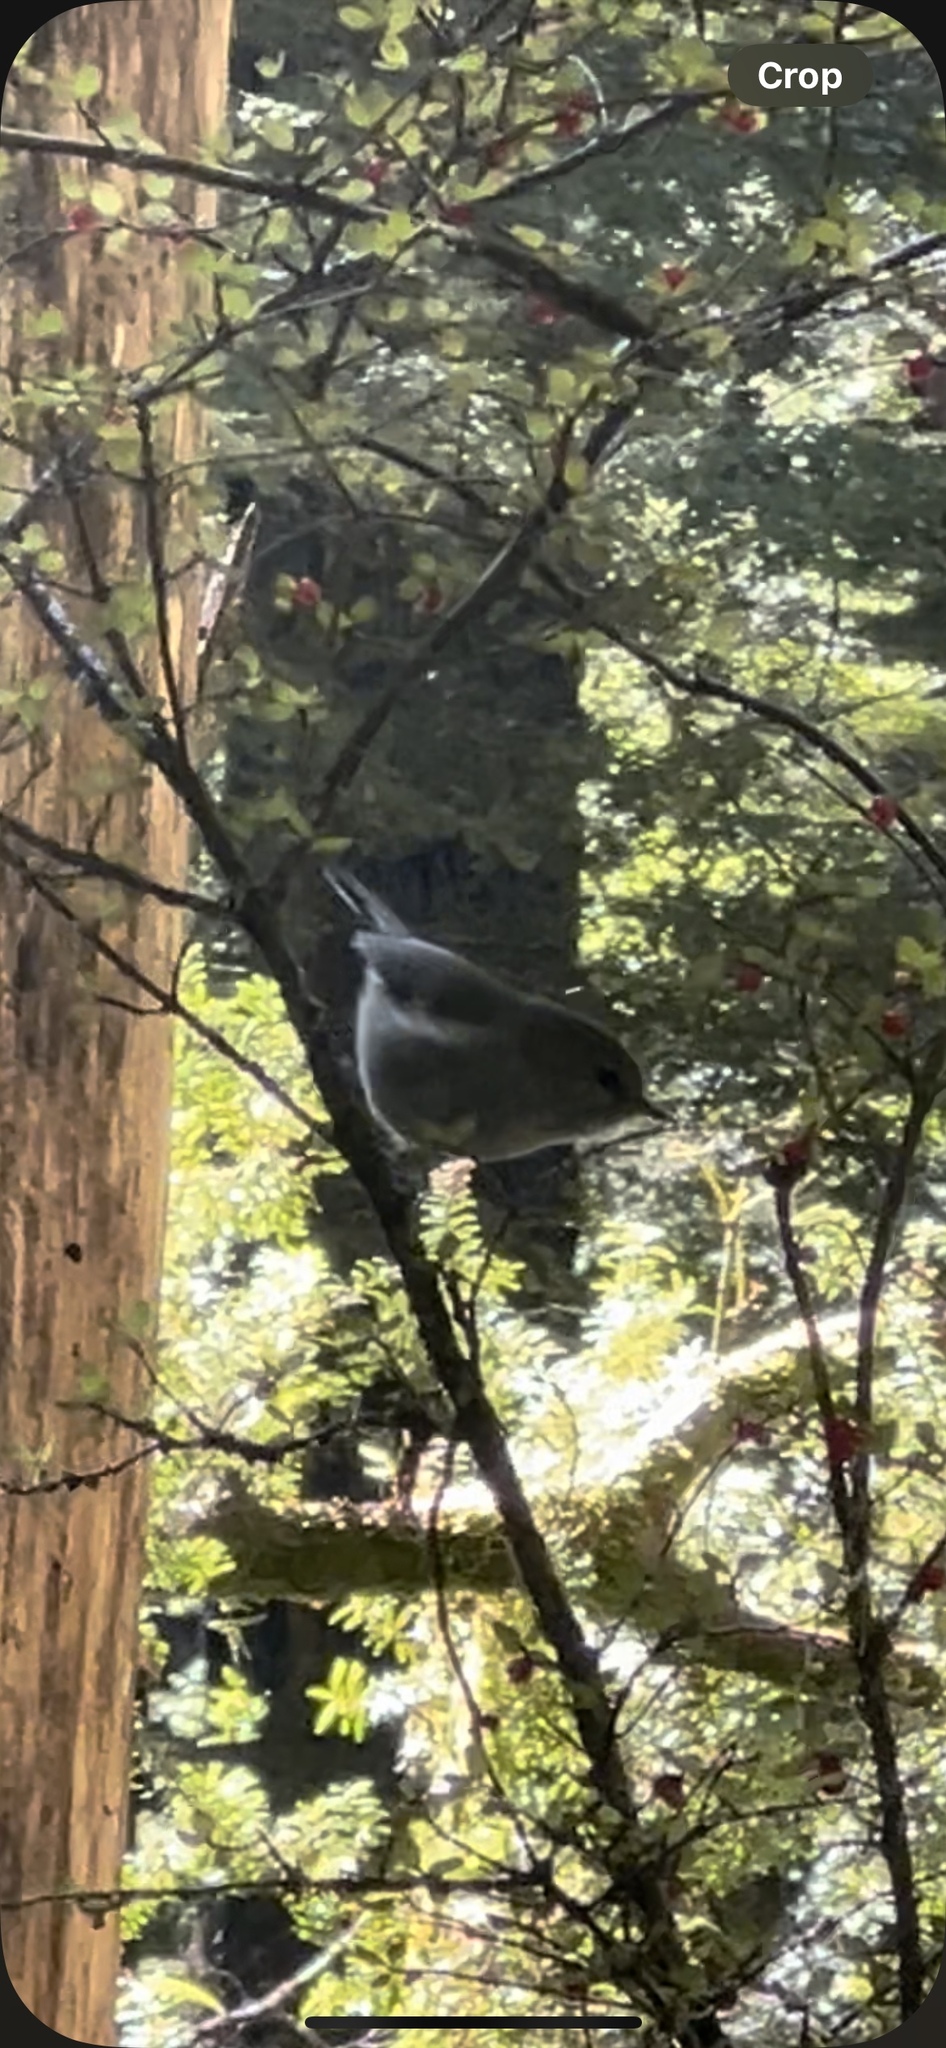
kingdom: Animalia
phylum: Chordata
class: Aves
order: Passeriformes
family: Acanthizidae
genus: Gerygone
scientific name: Gerygone igata
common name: Grey gerygone
